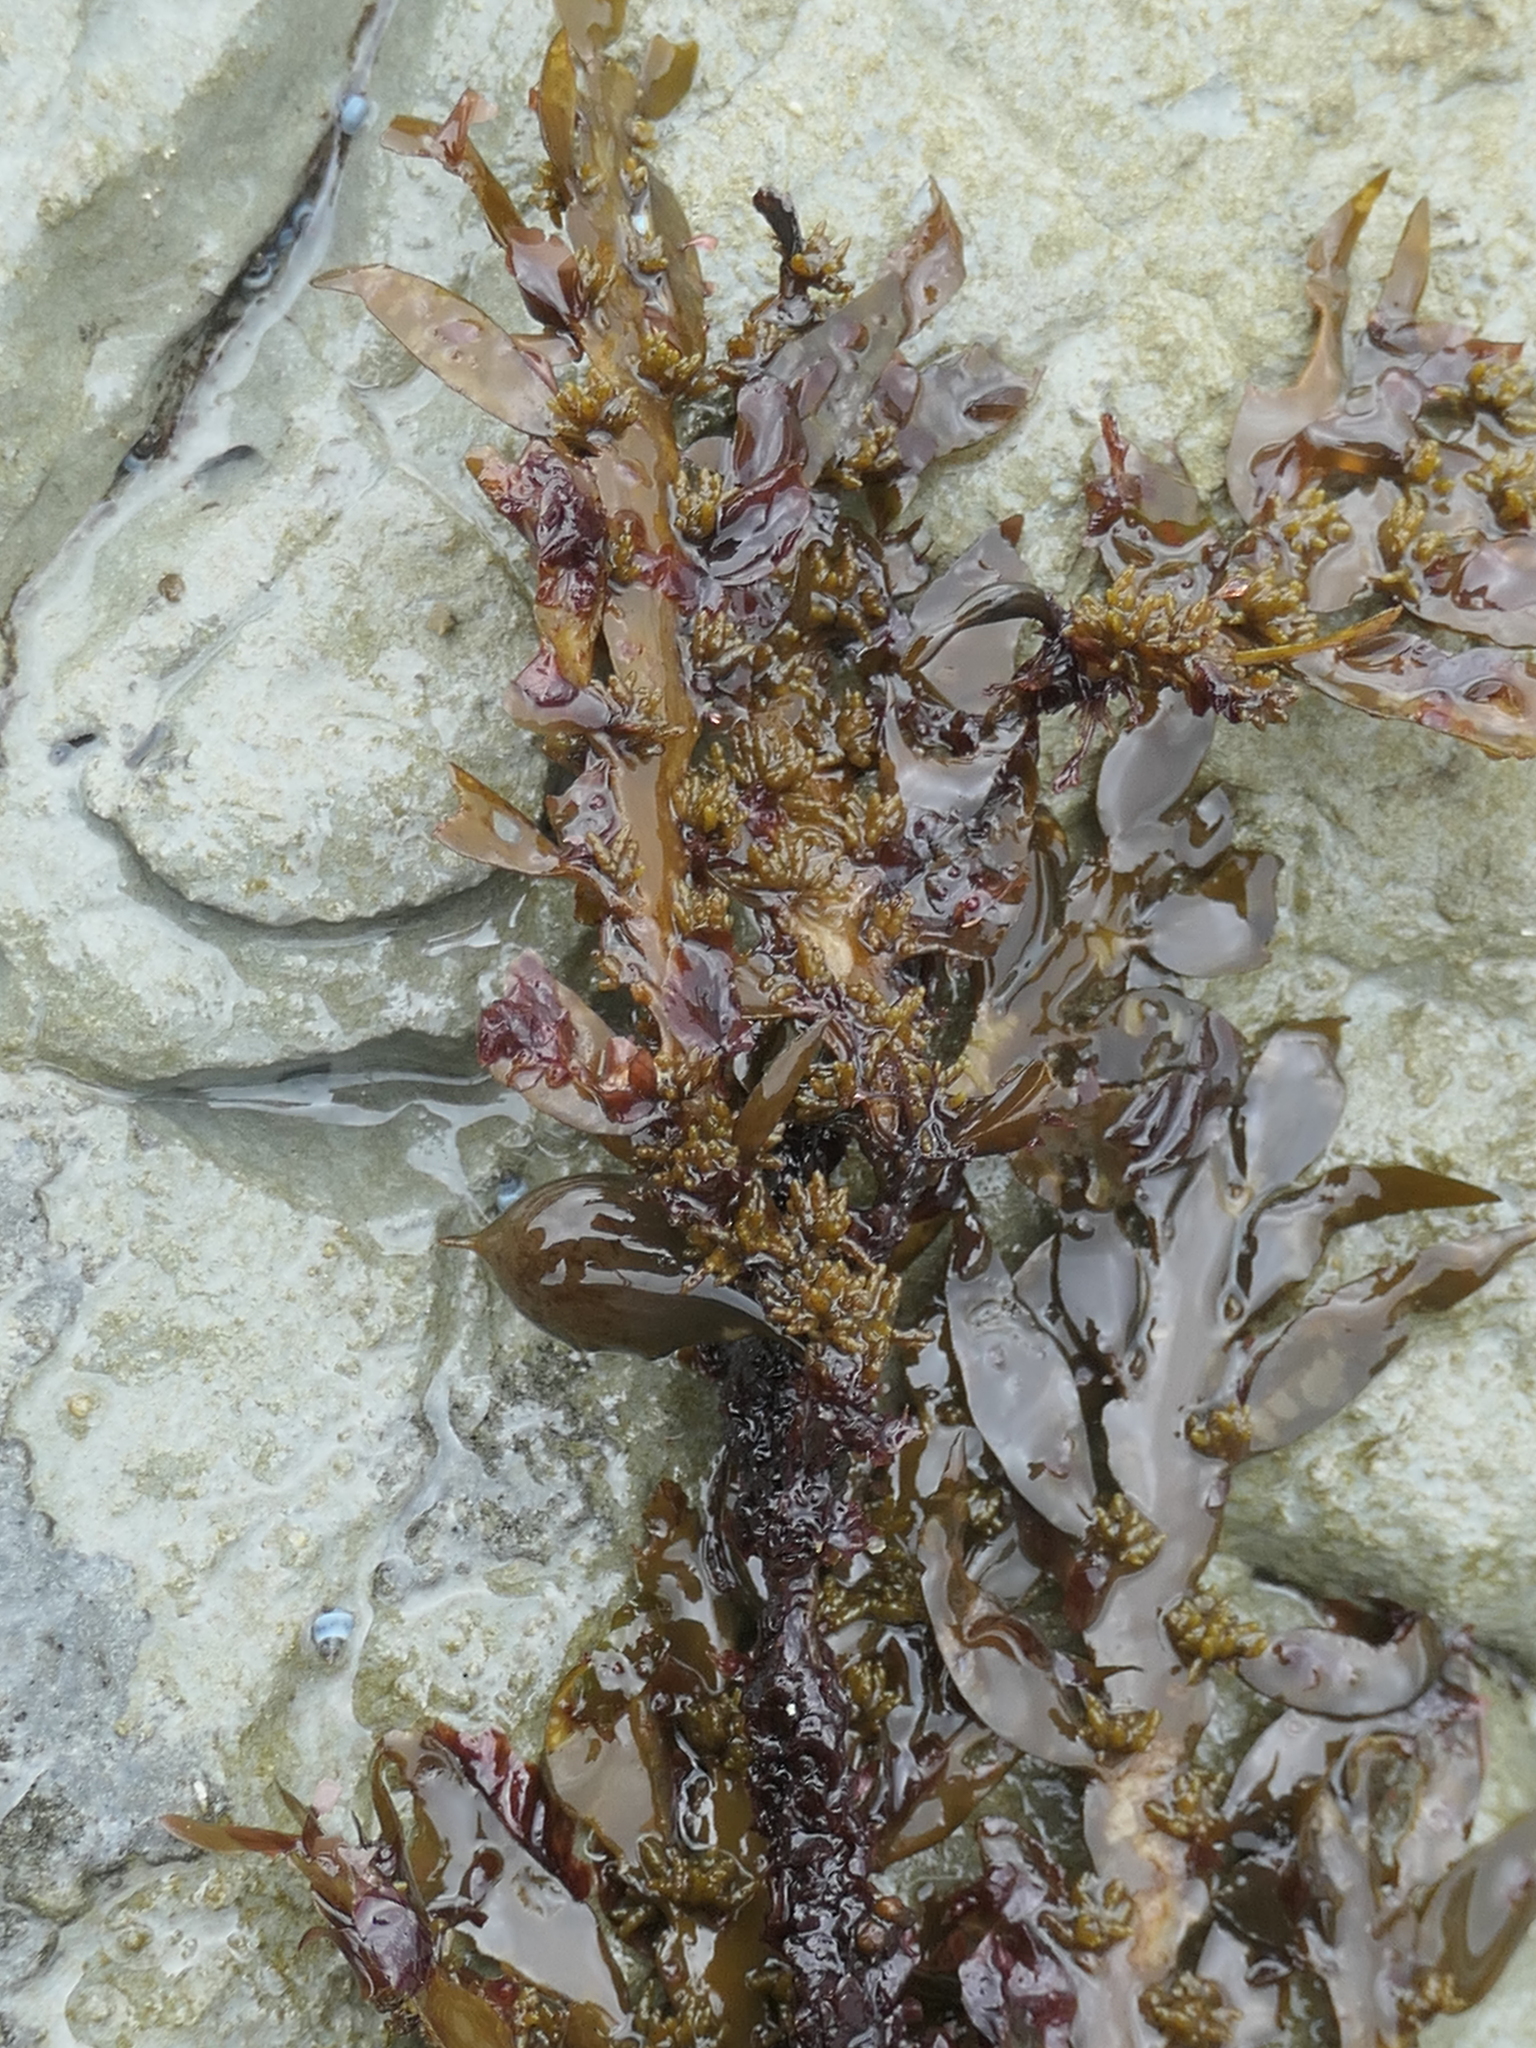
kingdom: Chromista
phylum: Ochrophyta
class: Phaeophyceae
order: Fucales
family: Sargassaceae
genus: Carpophyllum
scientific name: Carpophyllum maschalocarpum
